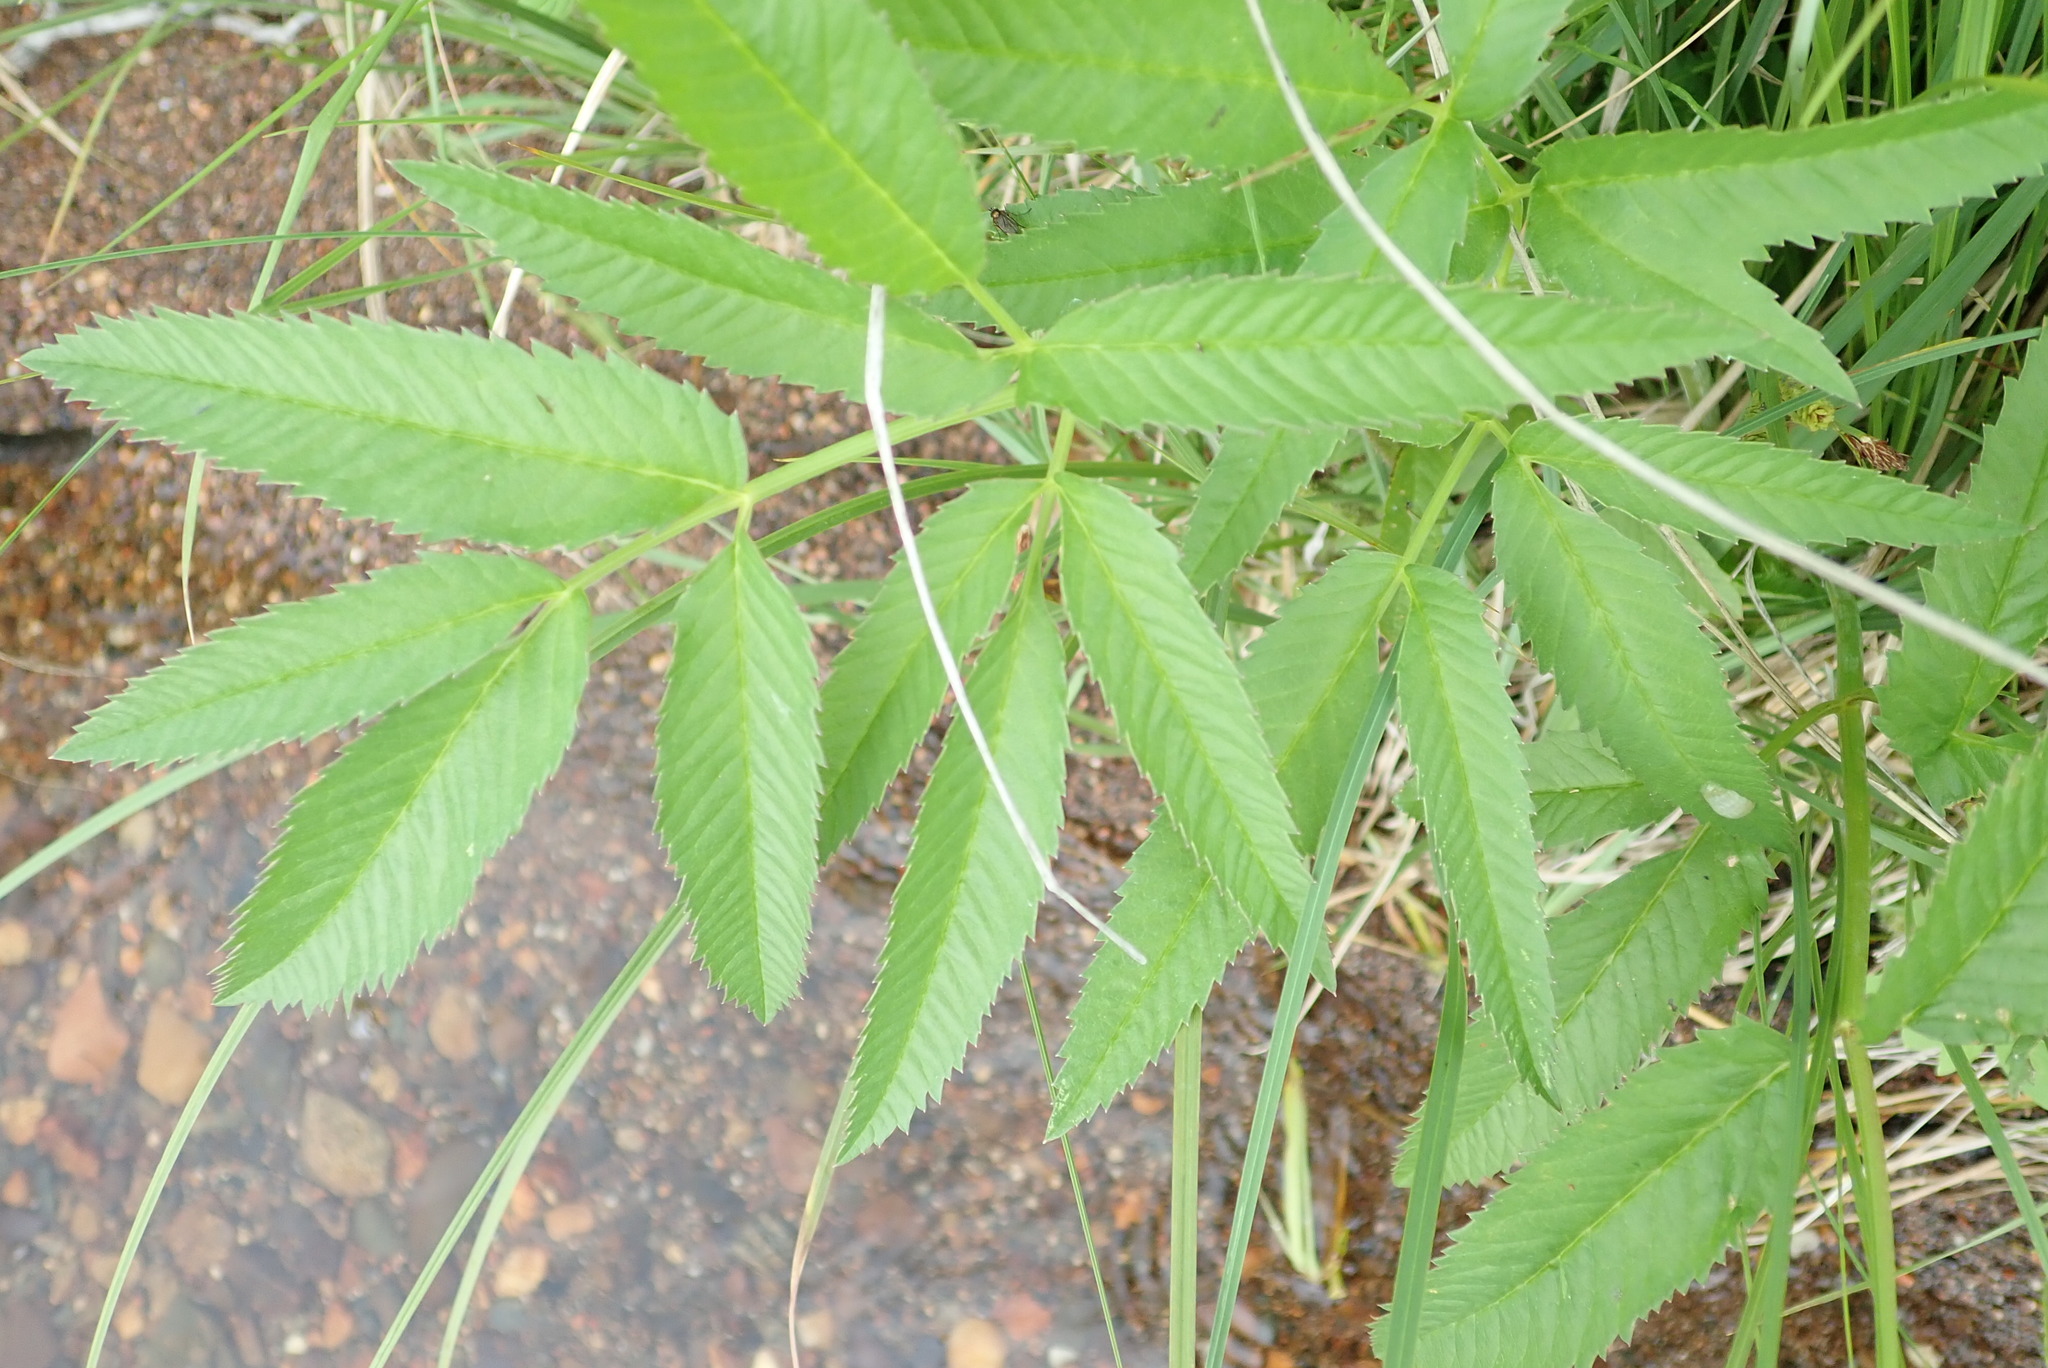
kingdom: Plantae
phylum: Tracheophyta
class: Magnoliopsida
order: Apiales
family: Apiaceae
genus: Cicuta
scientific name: Cicuta maculata
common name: Spotted cowbane
